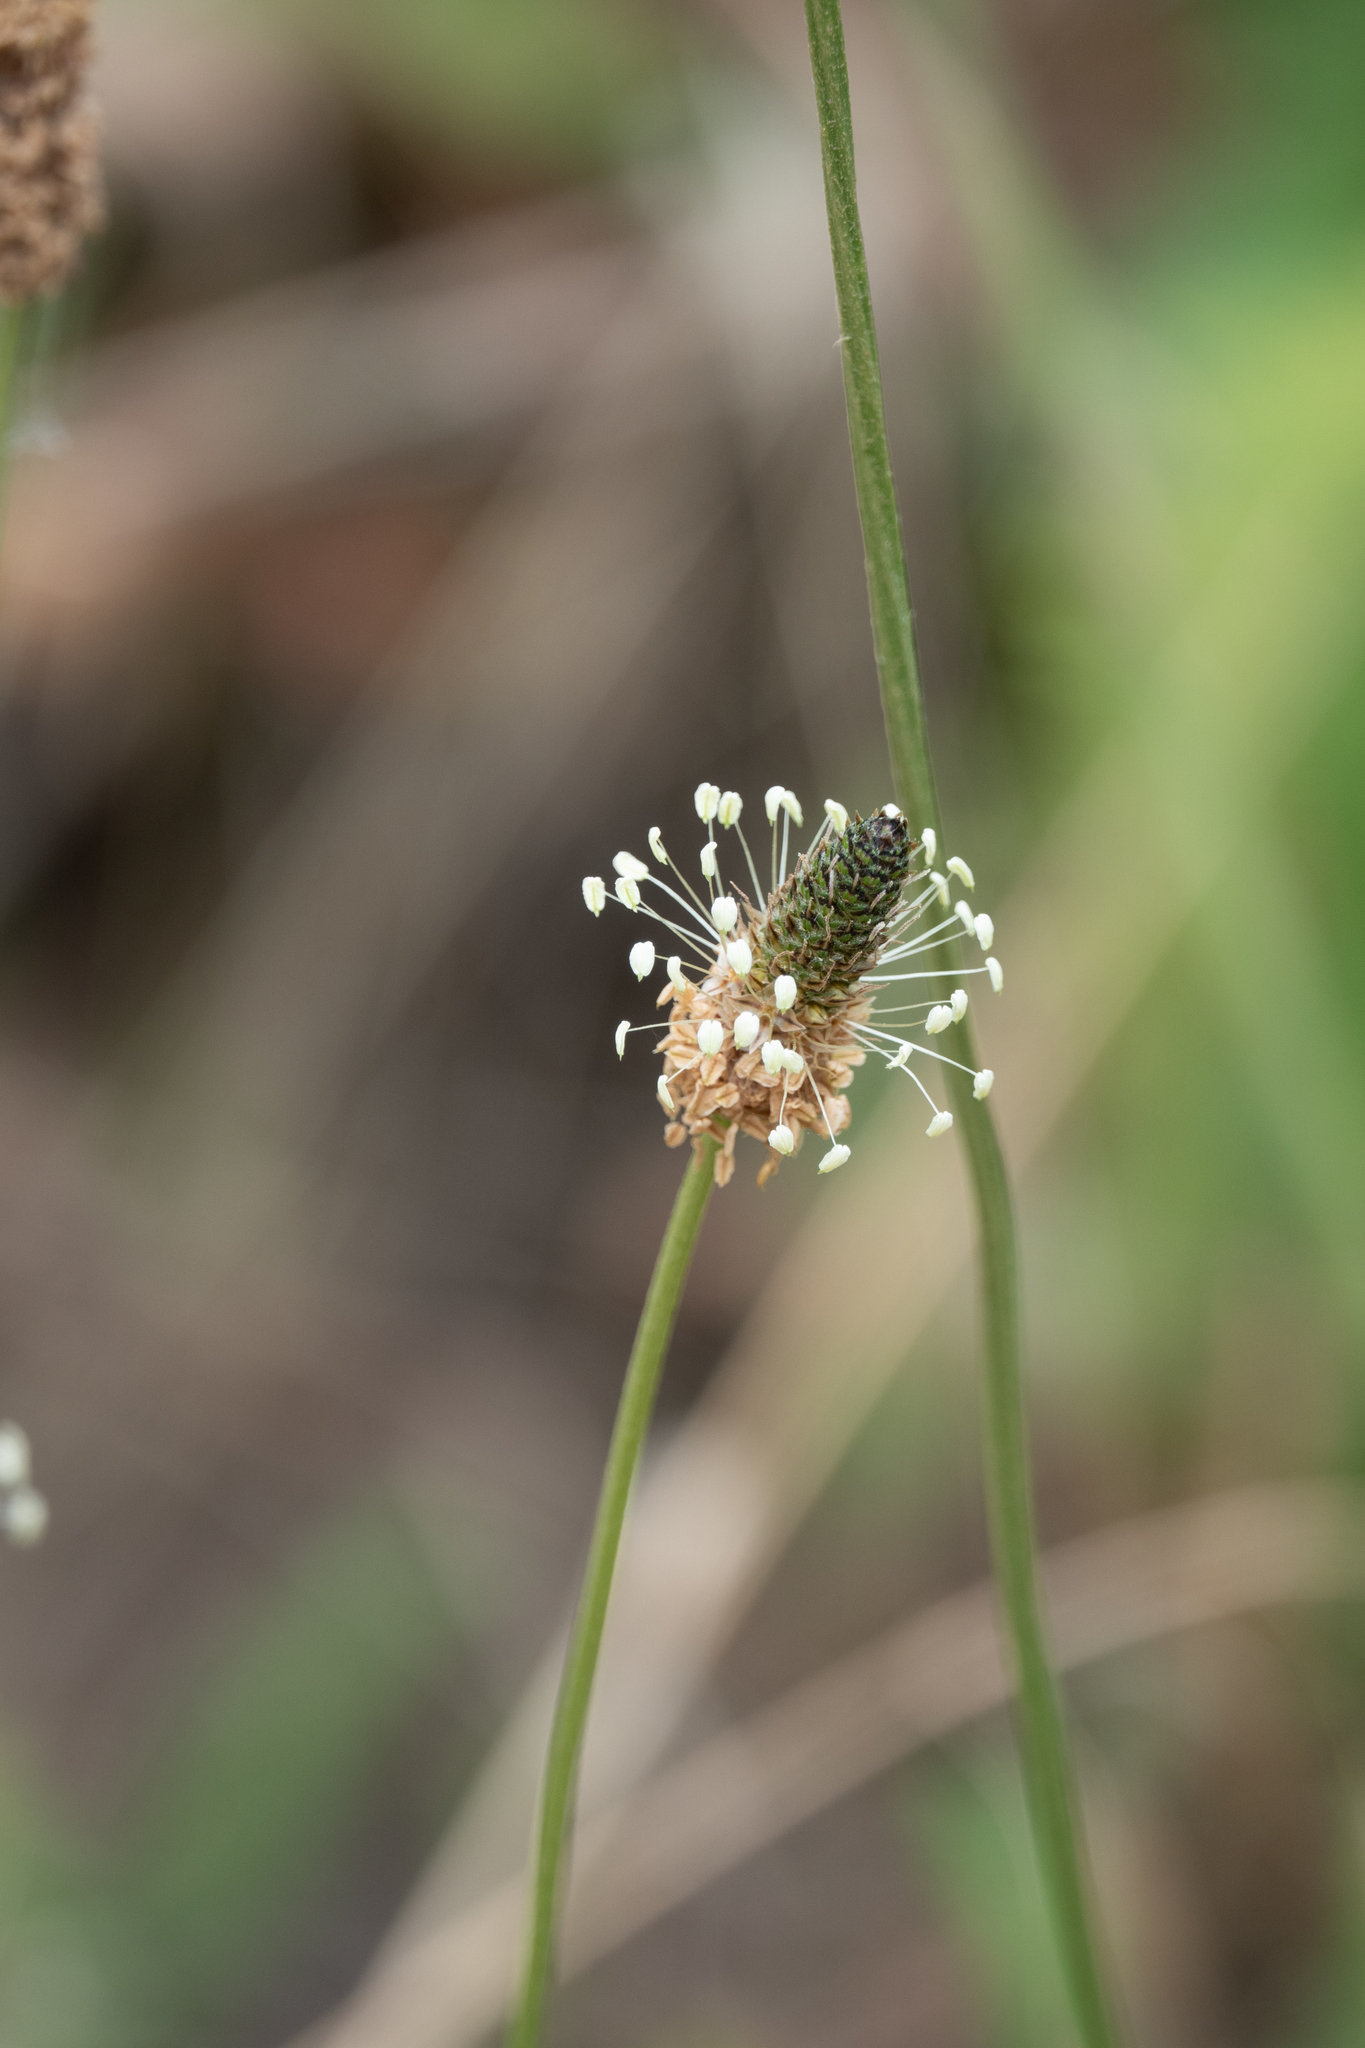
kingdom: Plantae
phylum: Tracheophyta
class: Magnoliopsida
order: Lamiales
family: Plantaginaceae
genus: Plantago
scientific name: Plantago lanceolata
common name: Ribwort plantain
